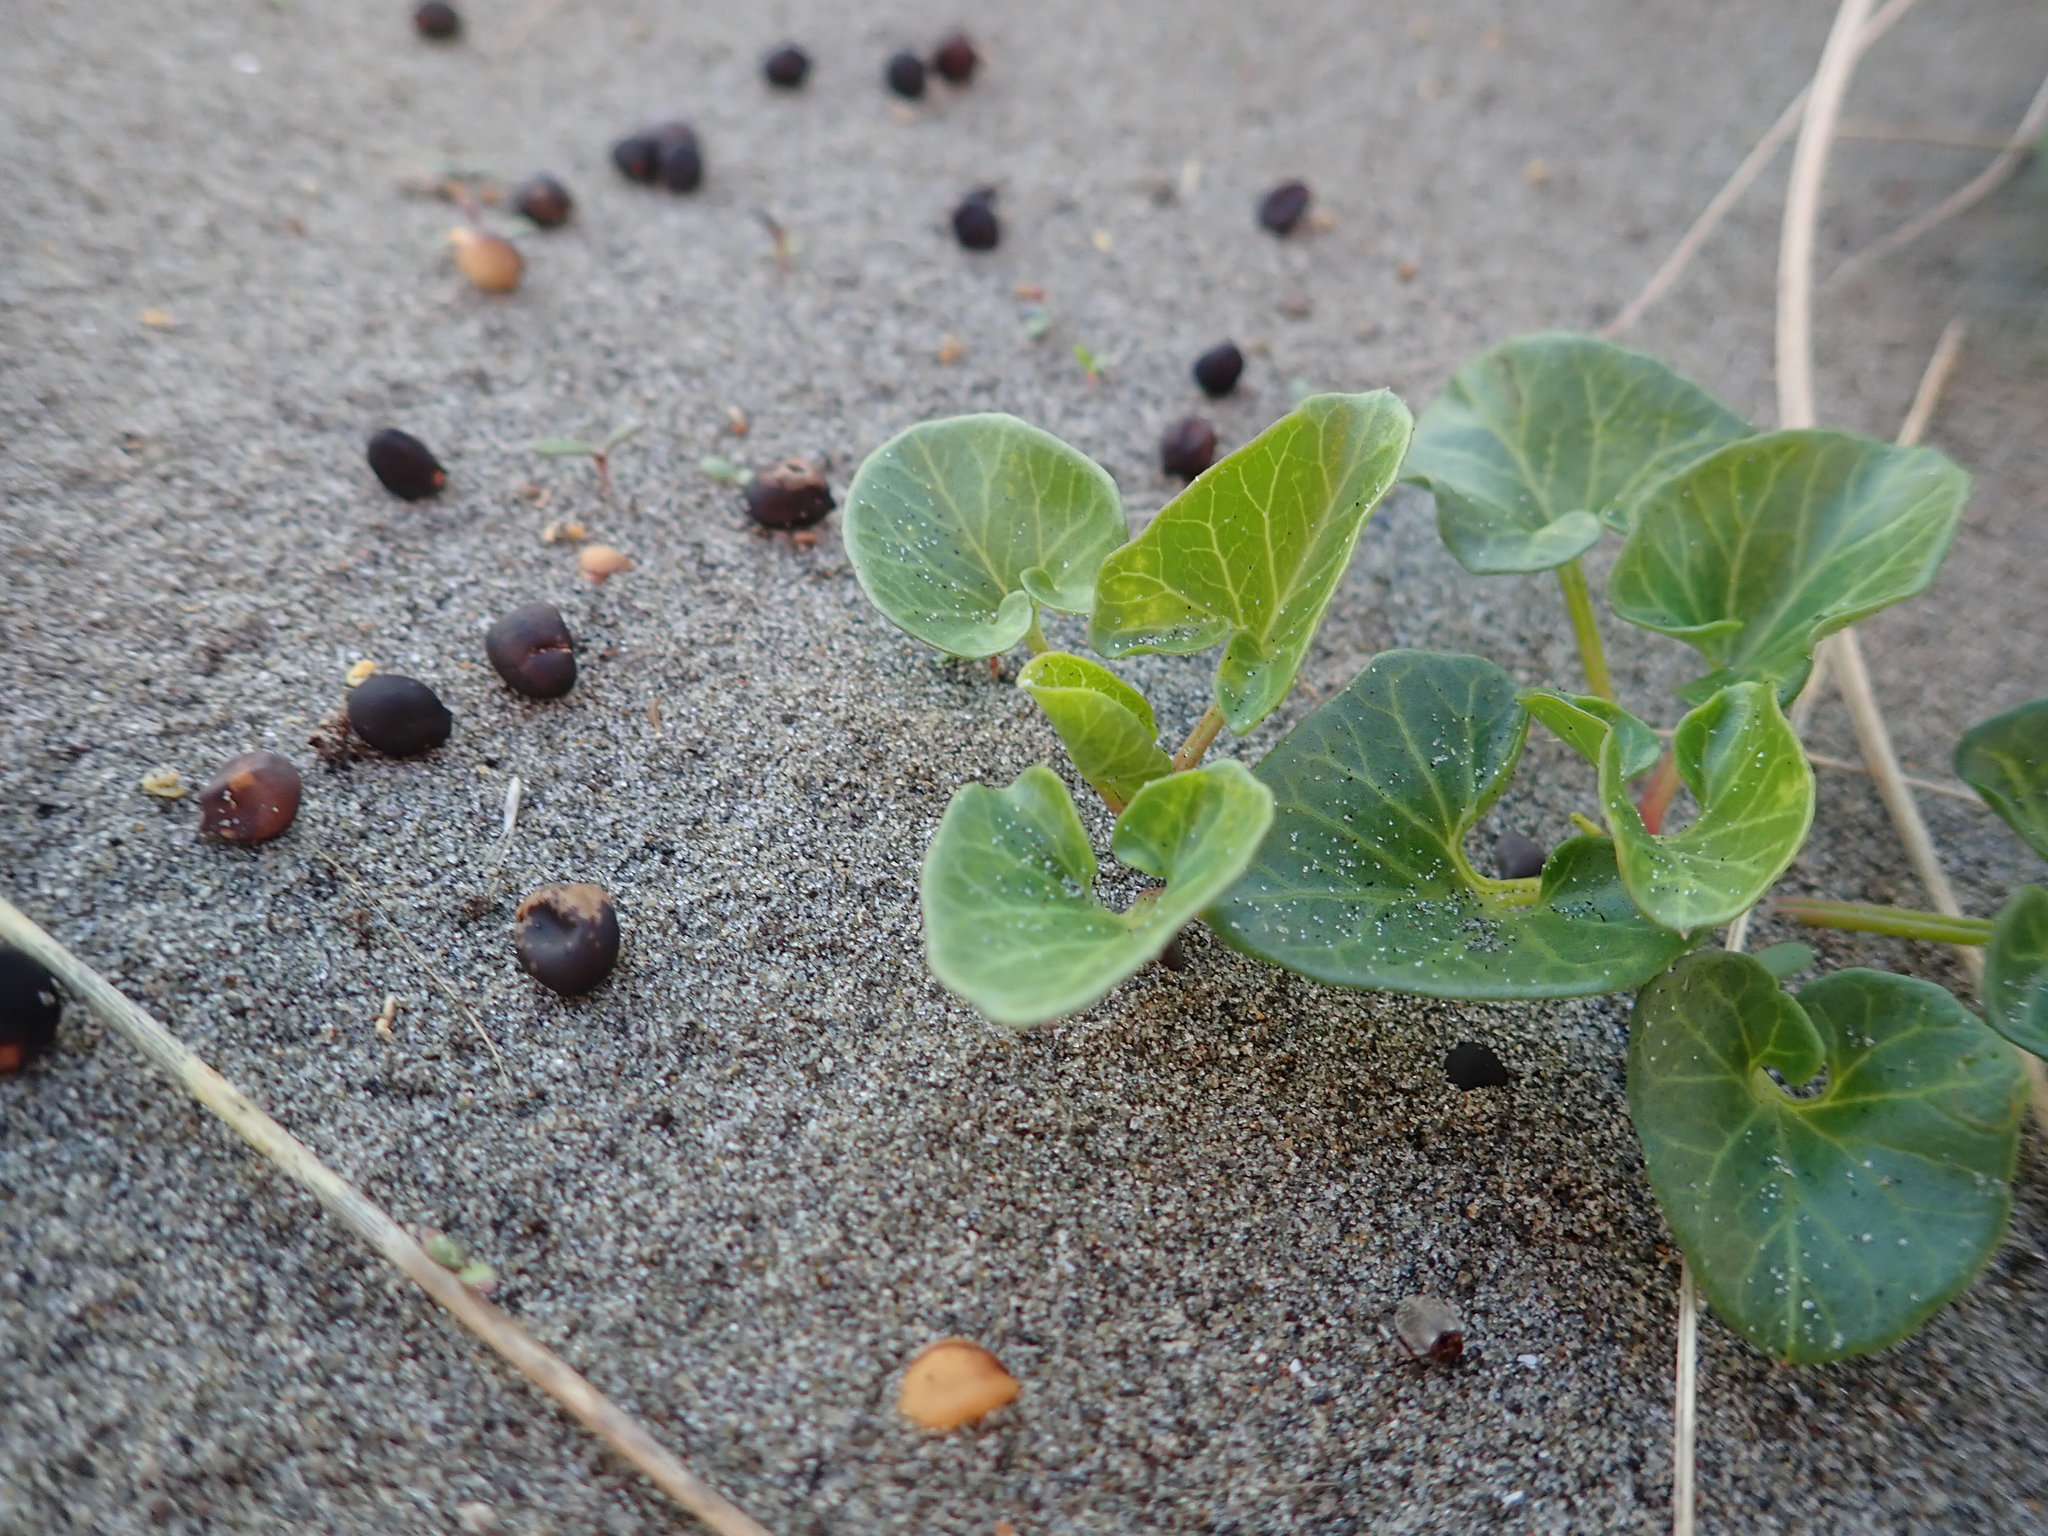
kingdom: Plantae
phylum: Tracheophyta
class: Magnoliopsida
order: Solanales
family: Convolvulaceae
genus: Calystegia
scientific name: Calystegia soldanella
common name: Sea bindweed
